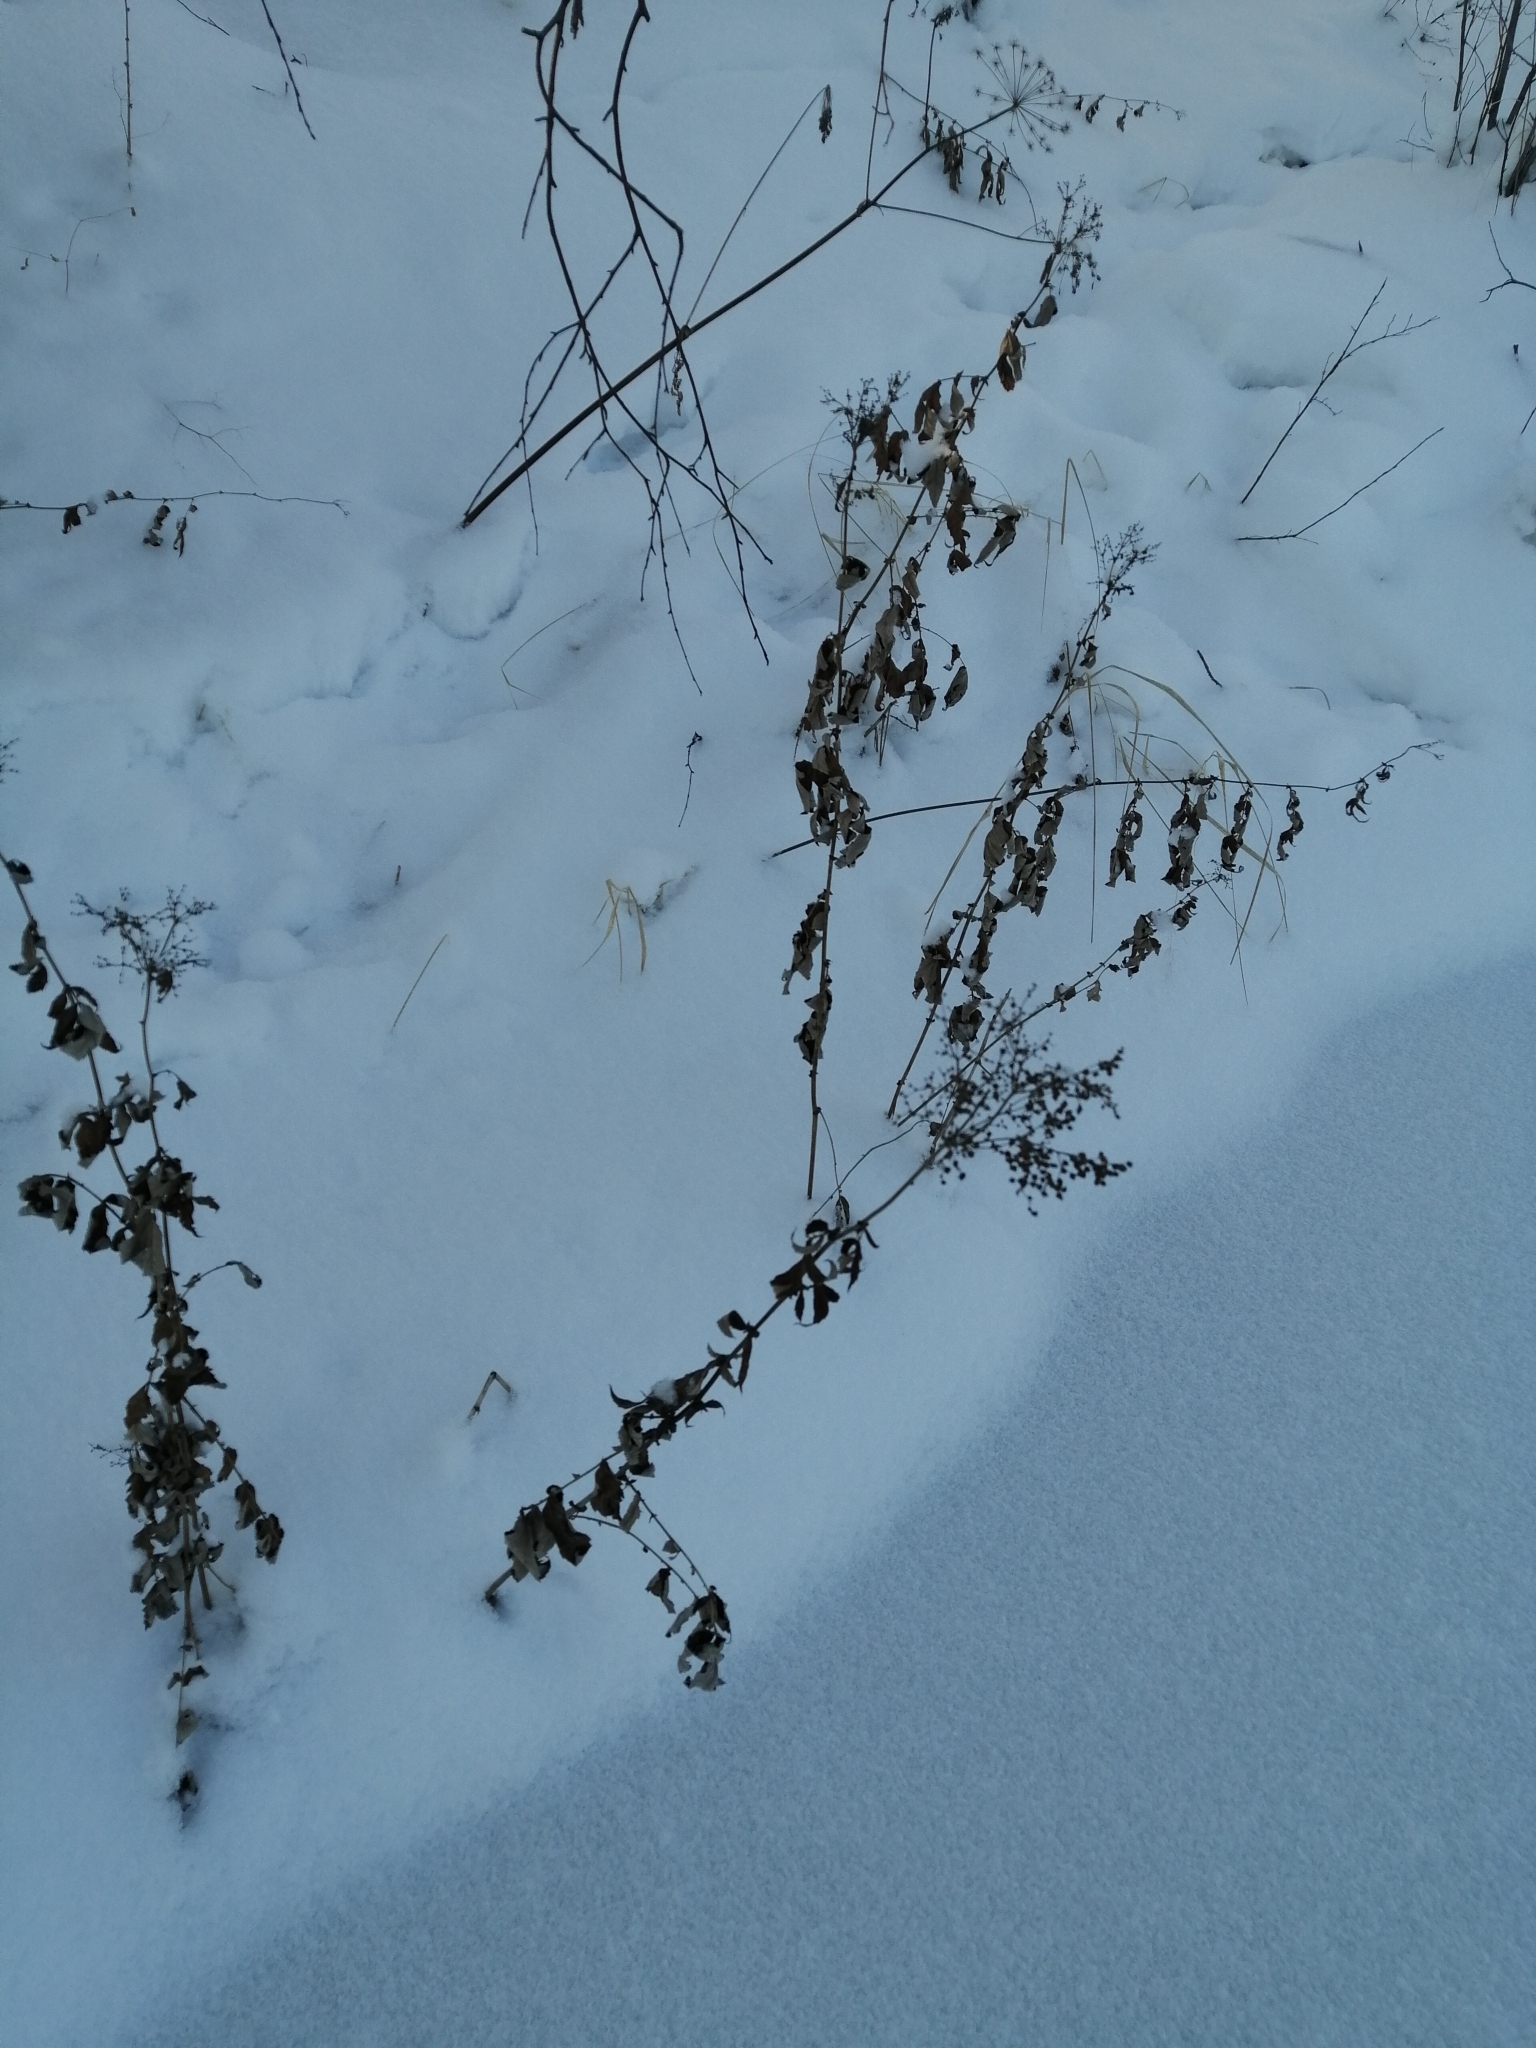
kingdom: Plantae
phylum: Tracheophyta
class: Magnoliopsida
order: Rosales
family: Rosaceae
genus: Filipendula
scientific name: Filipendula ulmaria
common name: Meadowsweet
